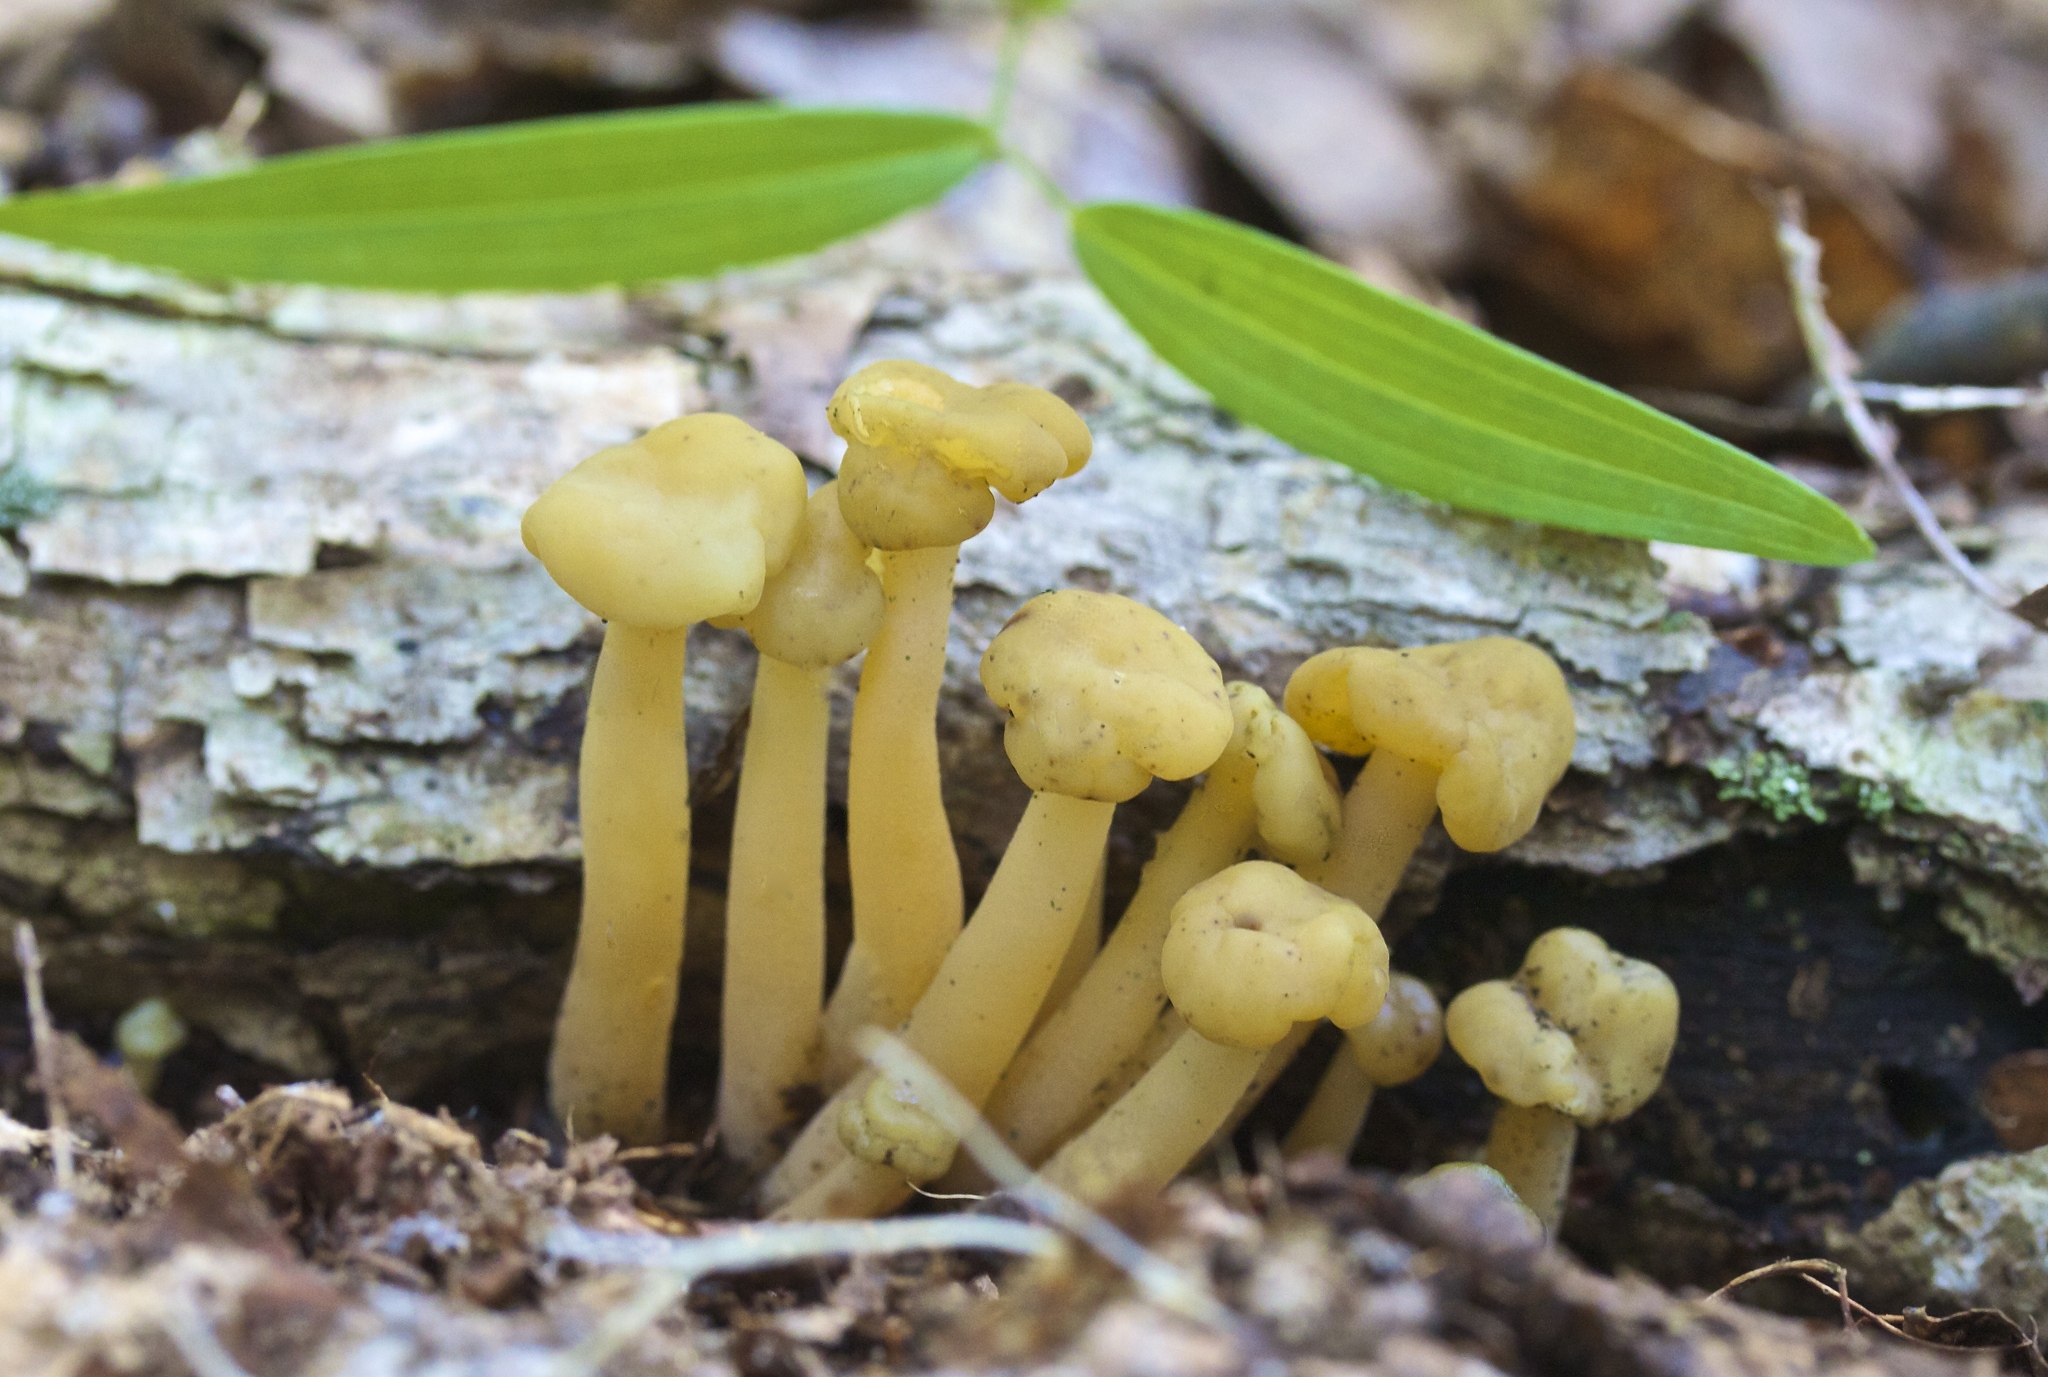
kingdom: Fungi
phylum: Ascomycota
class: Leotiomycetes
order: Leotiales
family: Leotiaceae
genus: Leotia
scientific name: Leotia lubrica
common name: Jellybaby
